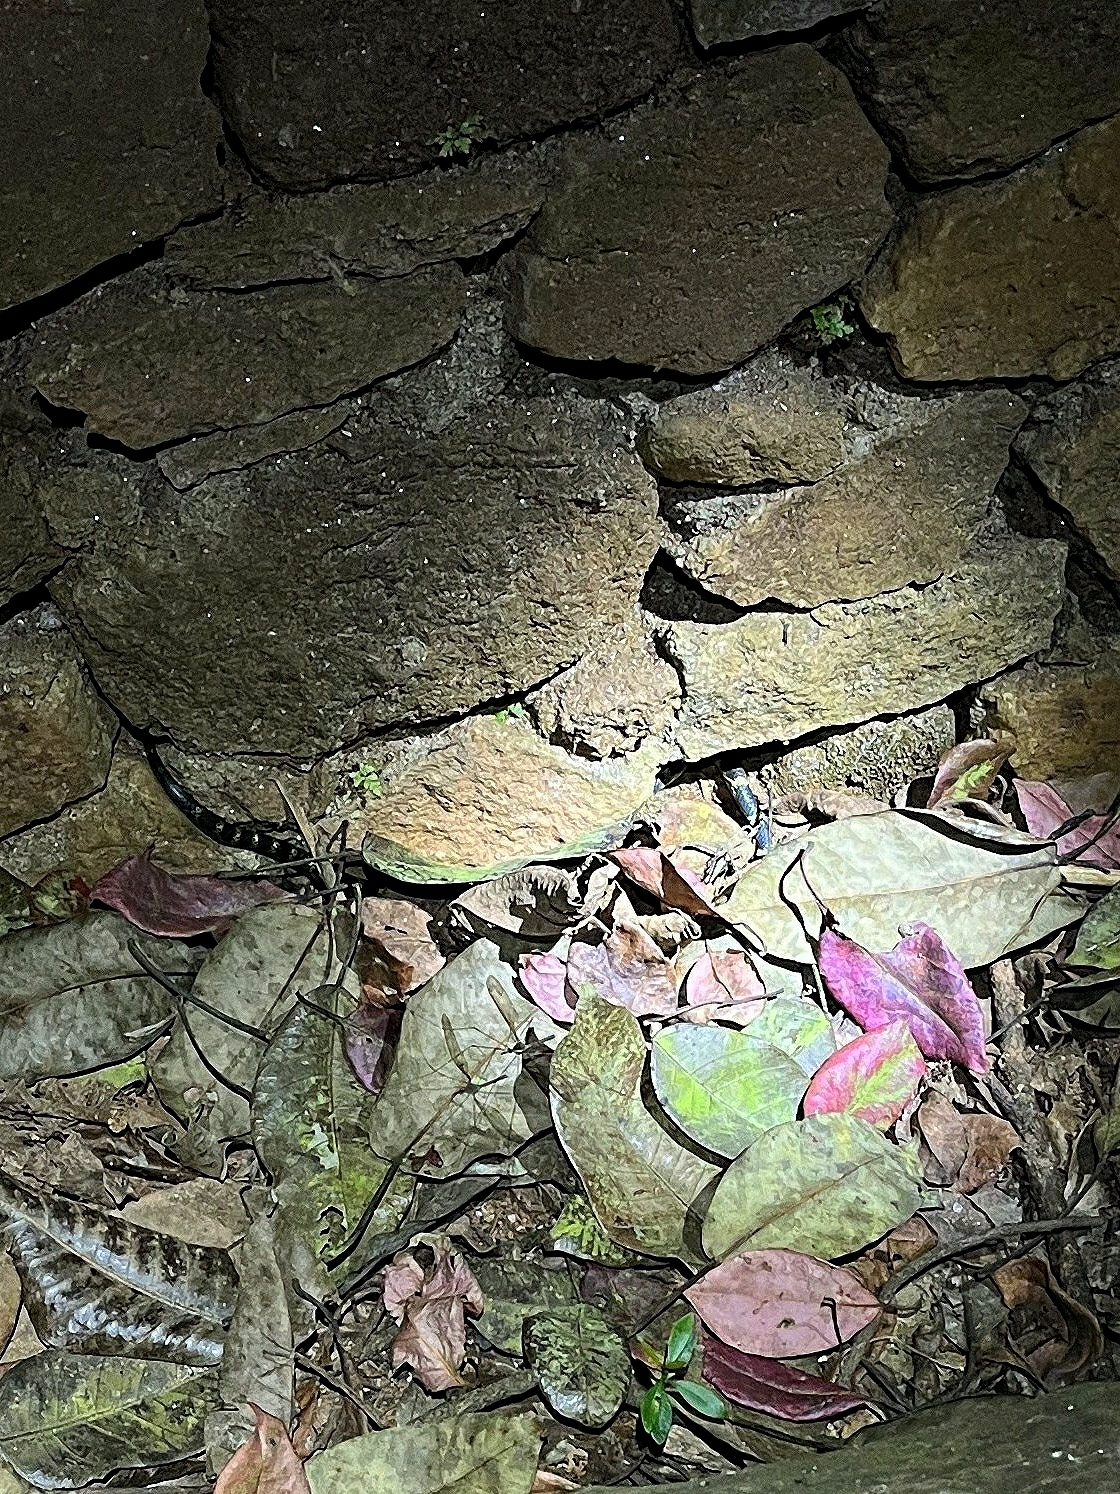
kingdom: Animalia
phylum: Chordata
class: Squamata
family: Colubridae
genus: Lycodon
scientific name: Lycodon travancoricus
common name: Travancore wolf snake
